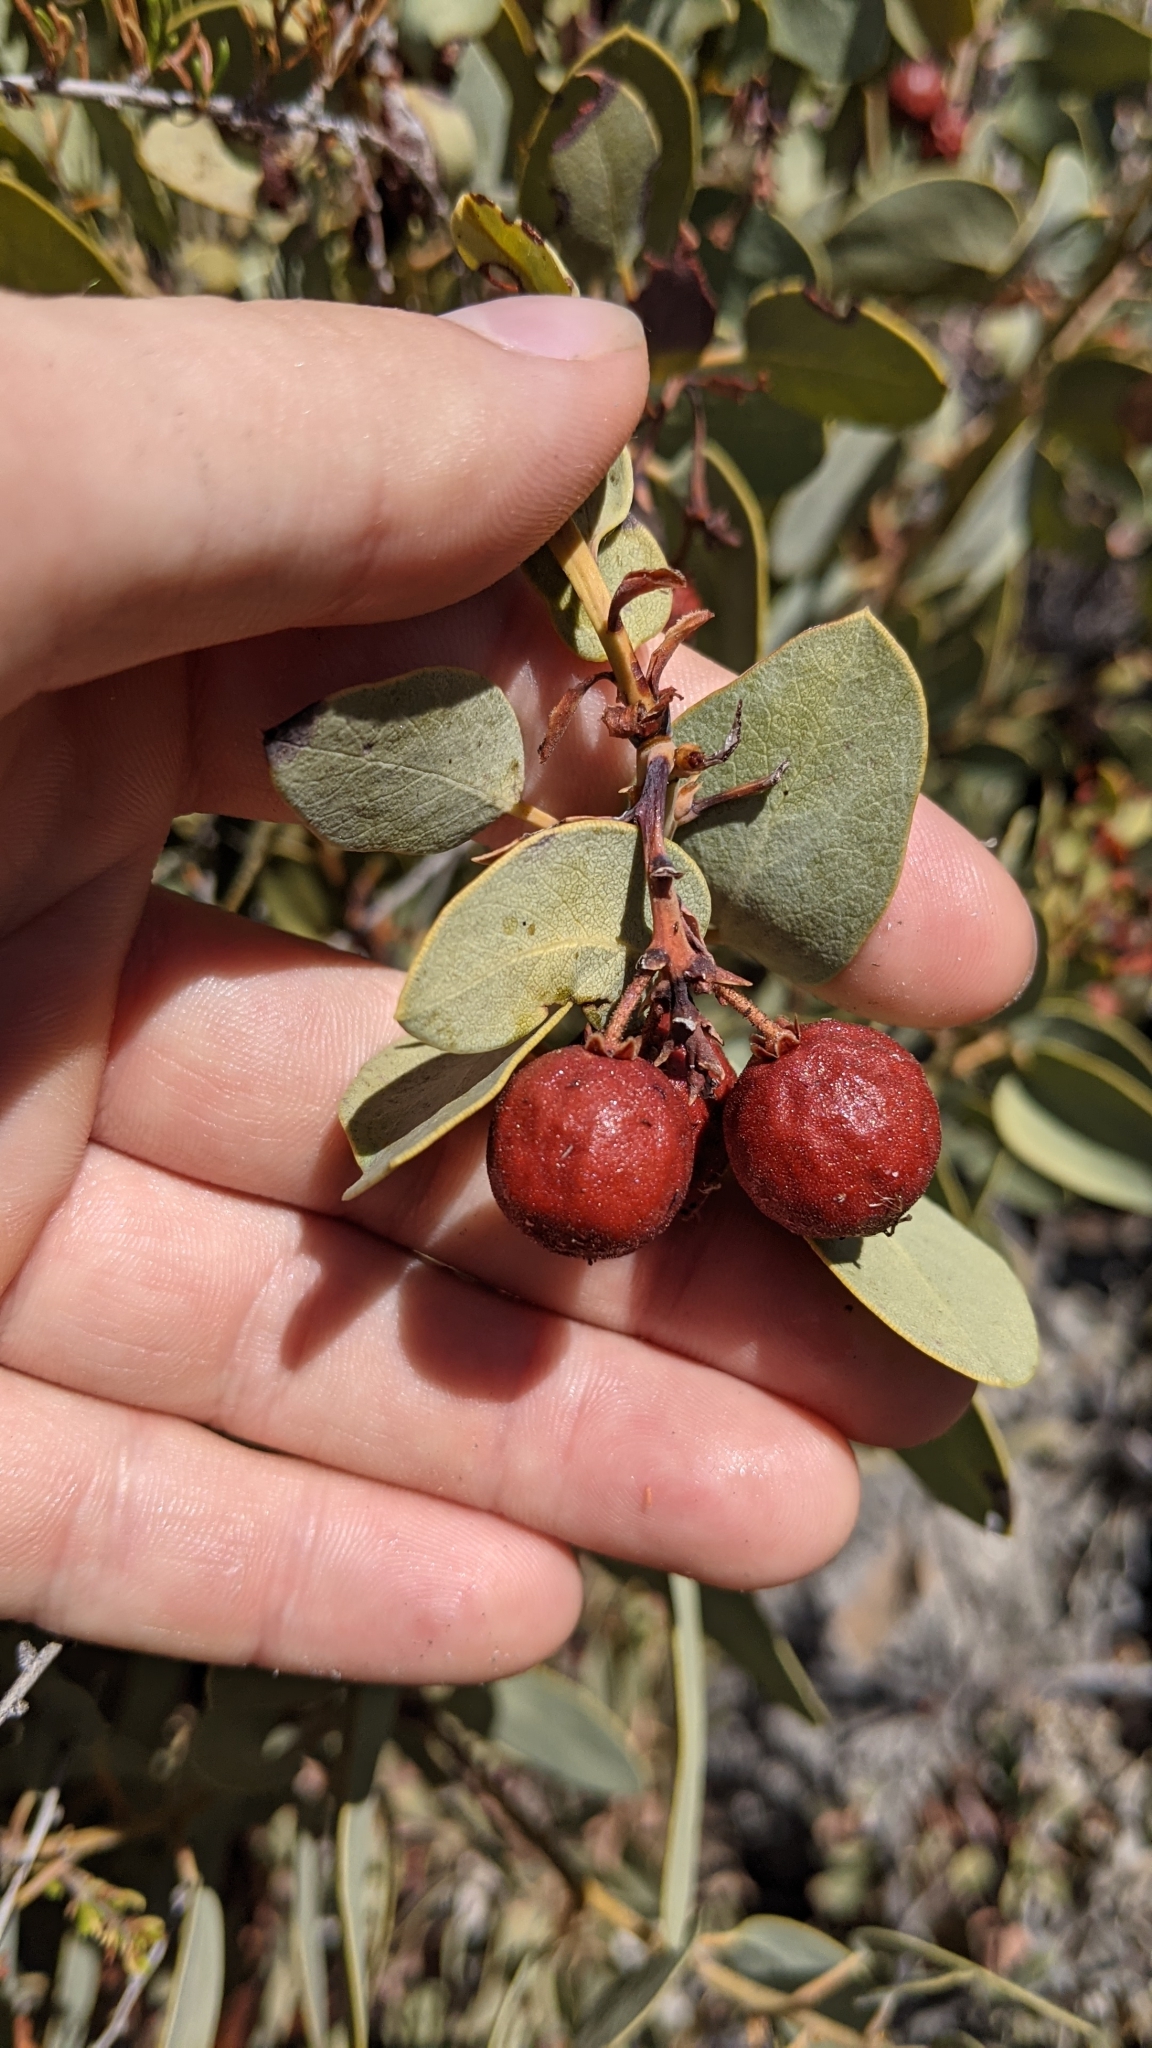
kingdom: Plantae
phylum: Tracheophyta
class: Magnoliopsida
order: Ericales
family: Ericaceae
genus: Arctostaphylos
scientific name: Arctostaphylos glauca
